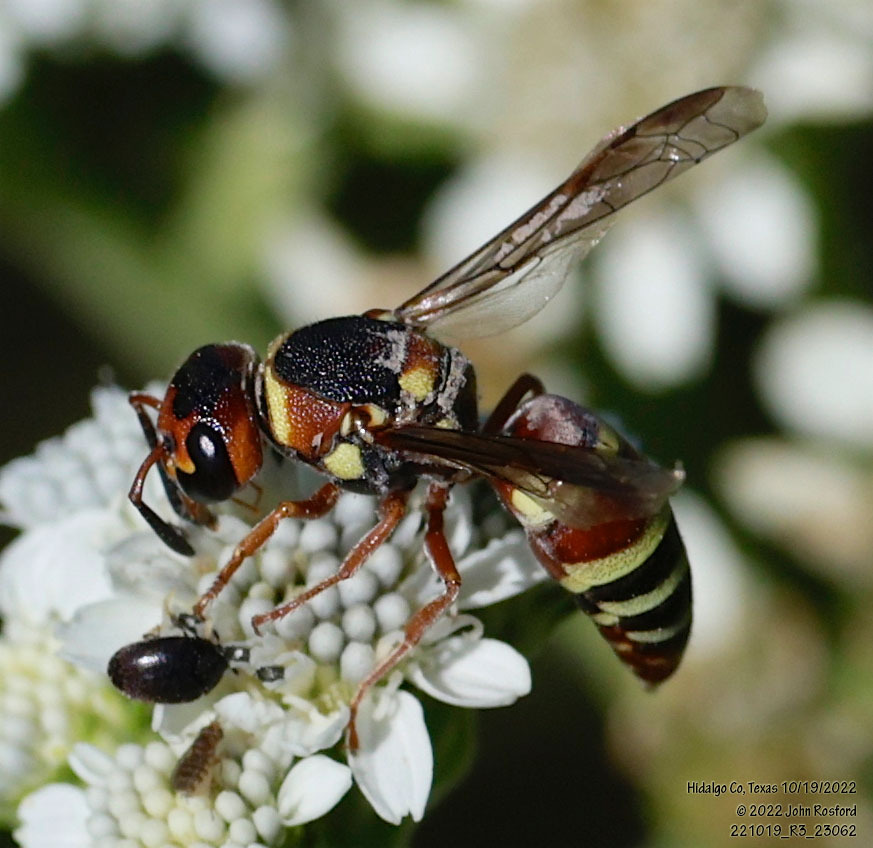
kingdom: Animalia
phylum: Arthropoda
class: Insecta
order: Hymenoptera
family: Eumenidae
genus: Euodynerus
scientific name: Euodynerus annulatus
